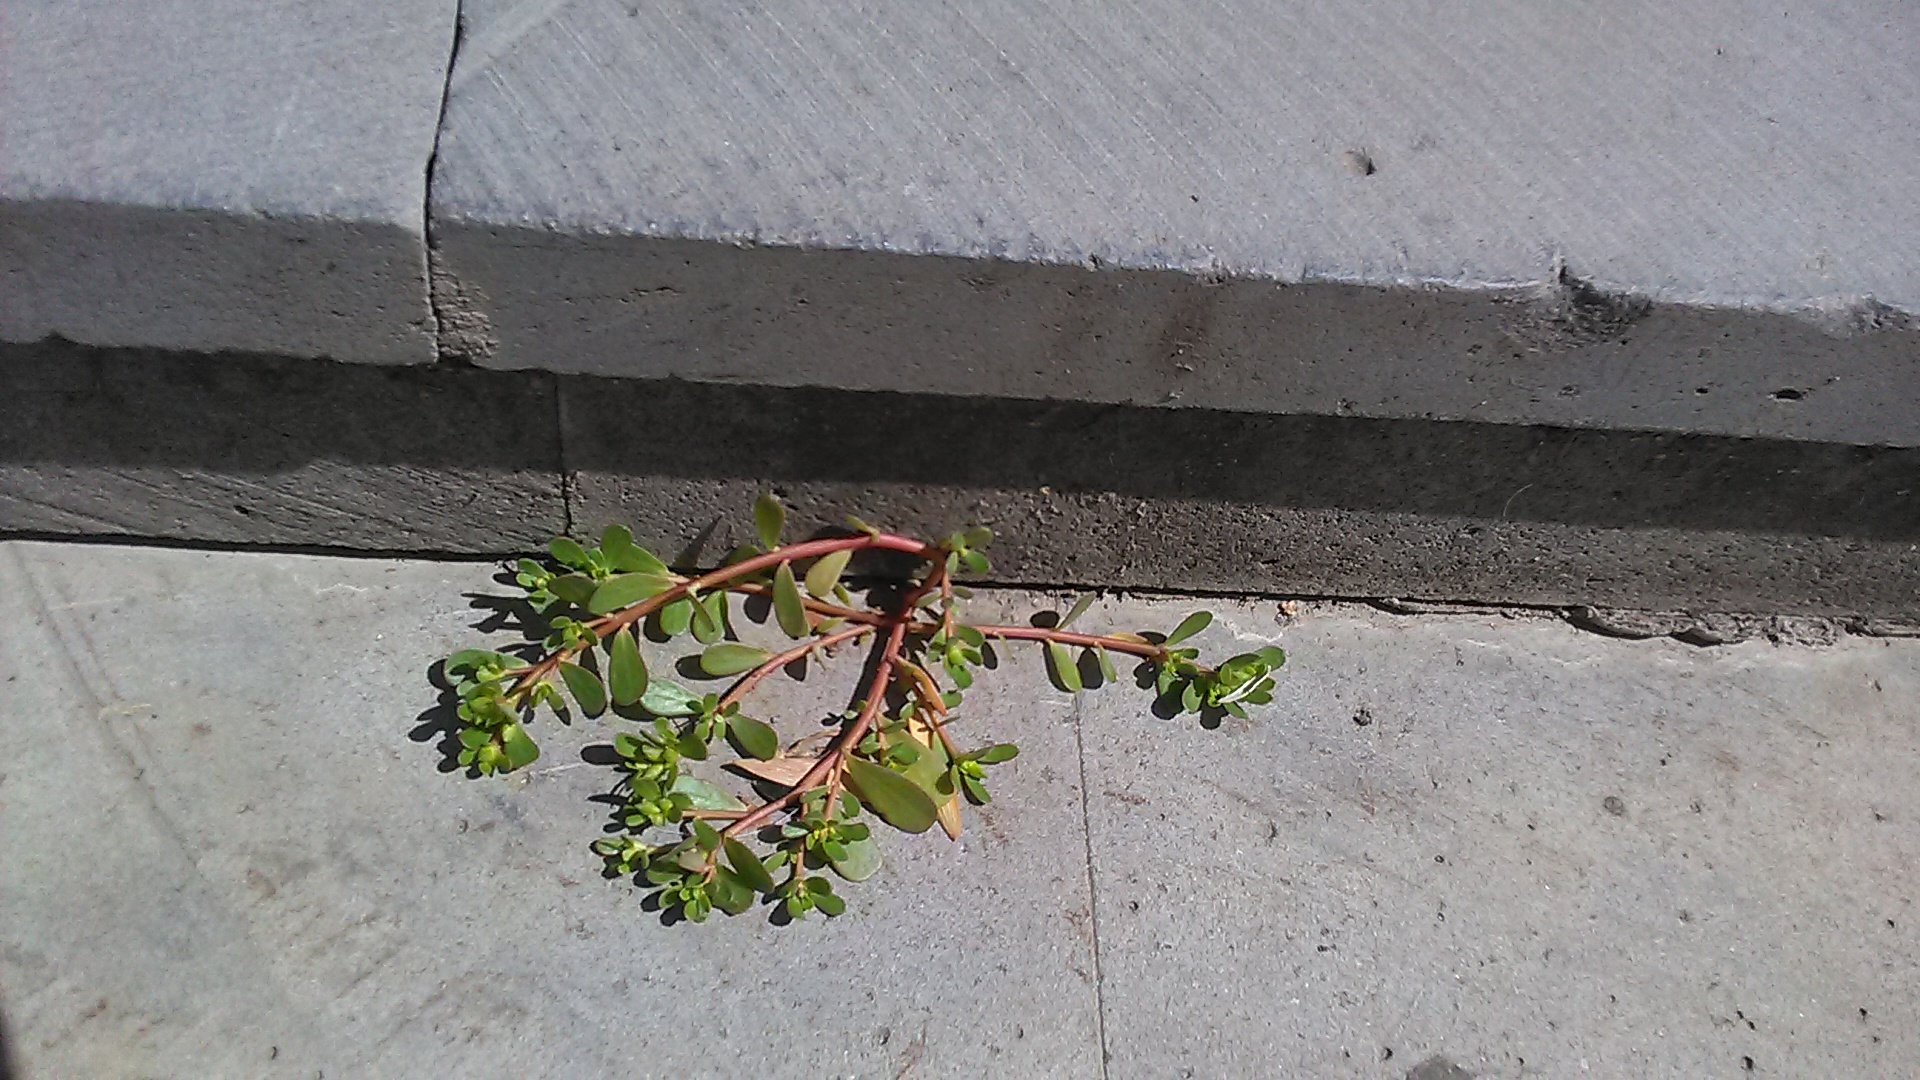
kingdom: Plantae
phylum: Tracheophyta
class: Magnoliopsida
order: Caryophyllales
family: Portulacaceae
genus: Portulaca
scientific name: Portulaca oleracea
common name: Common purslane
